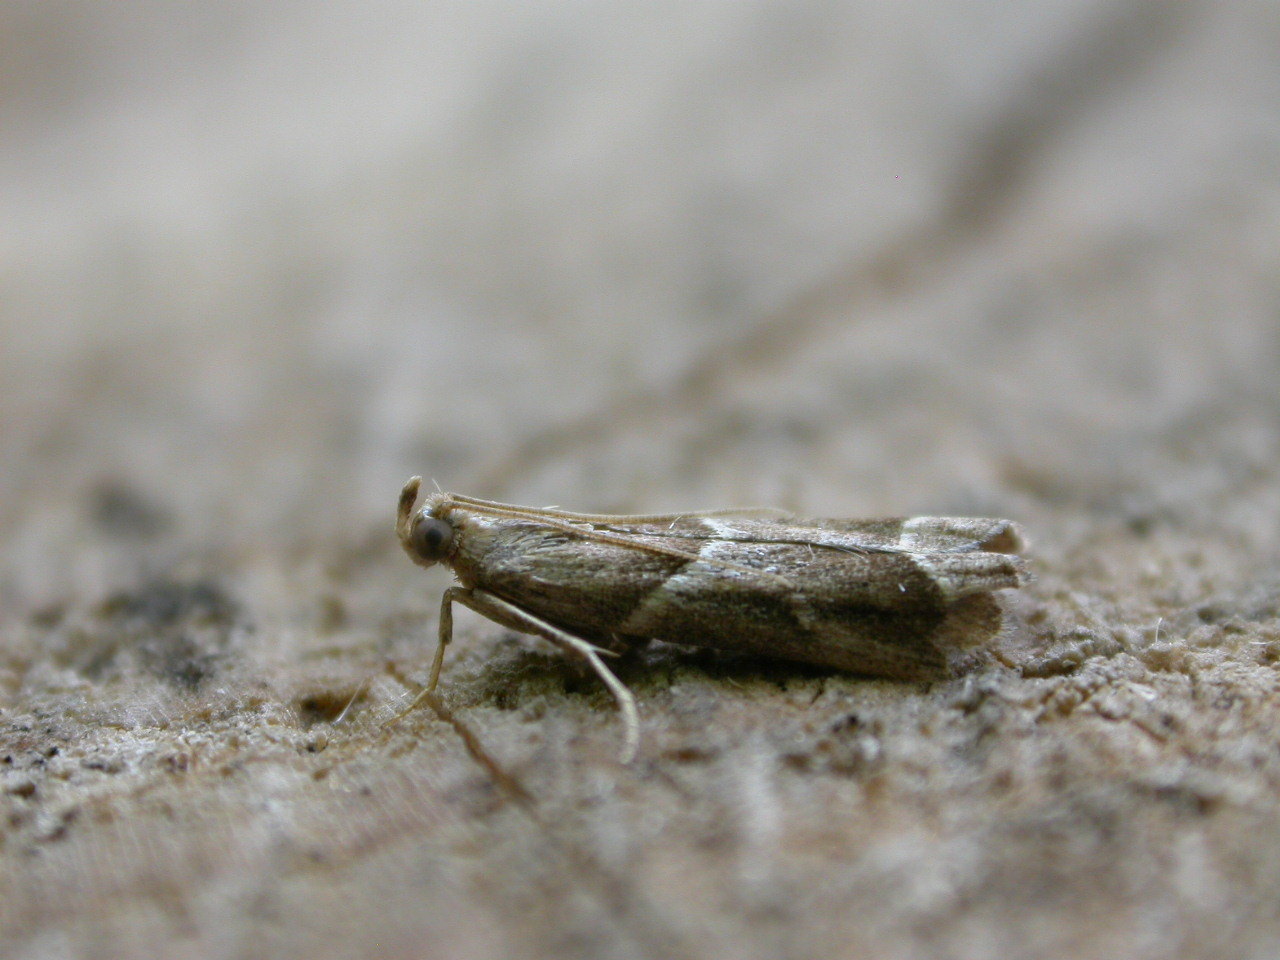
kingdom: Animalia
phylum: Arthropoda
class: Insecta
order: Lepidoptera
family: Pyralidae
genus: Nyctegretis
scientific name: Nyctegretis lineana
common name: Agate knot-horn
